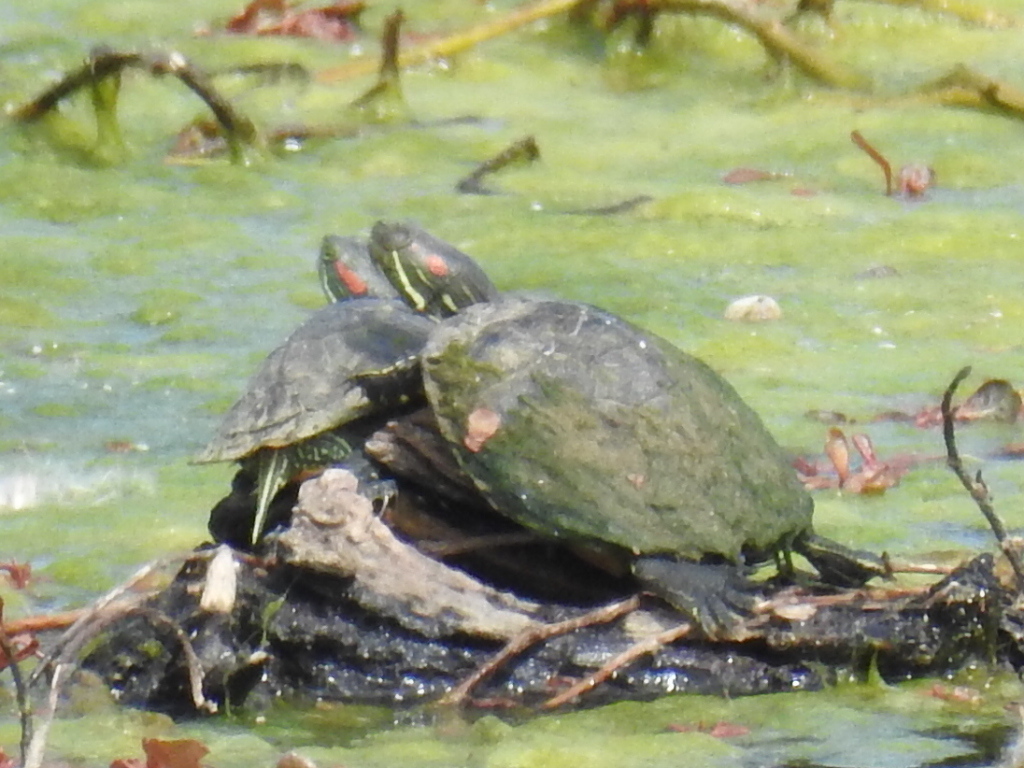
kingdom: Animalia
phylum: Chordata
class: Testudines
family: Emydidae
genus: Trachemys
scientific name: Trachemys scripta
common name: Slider
